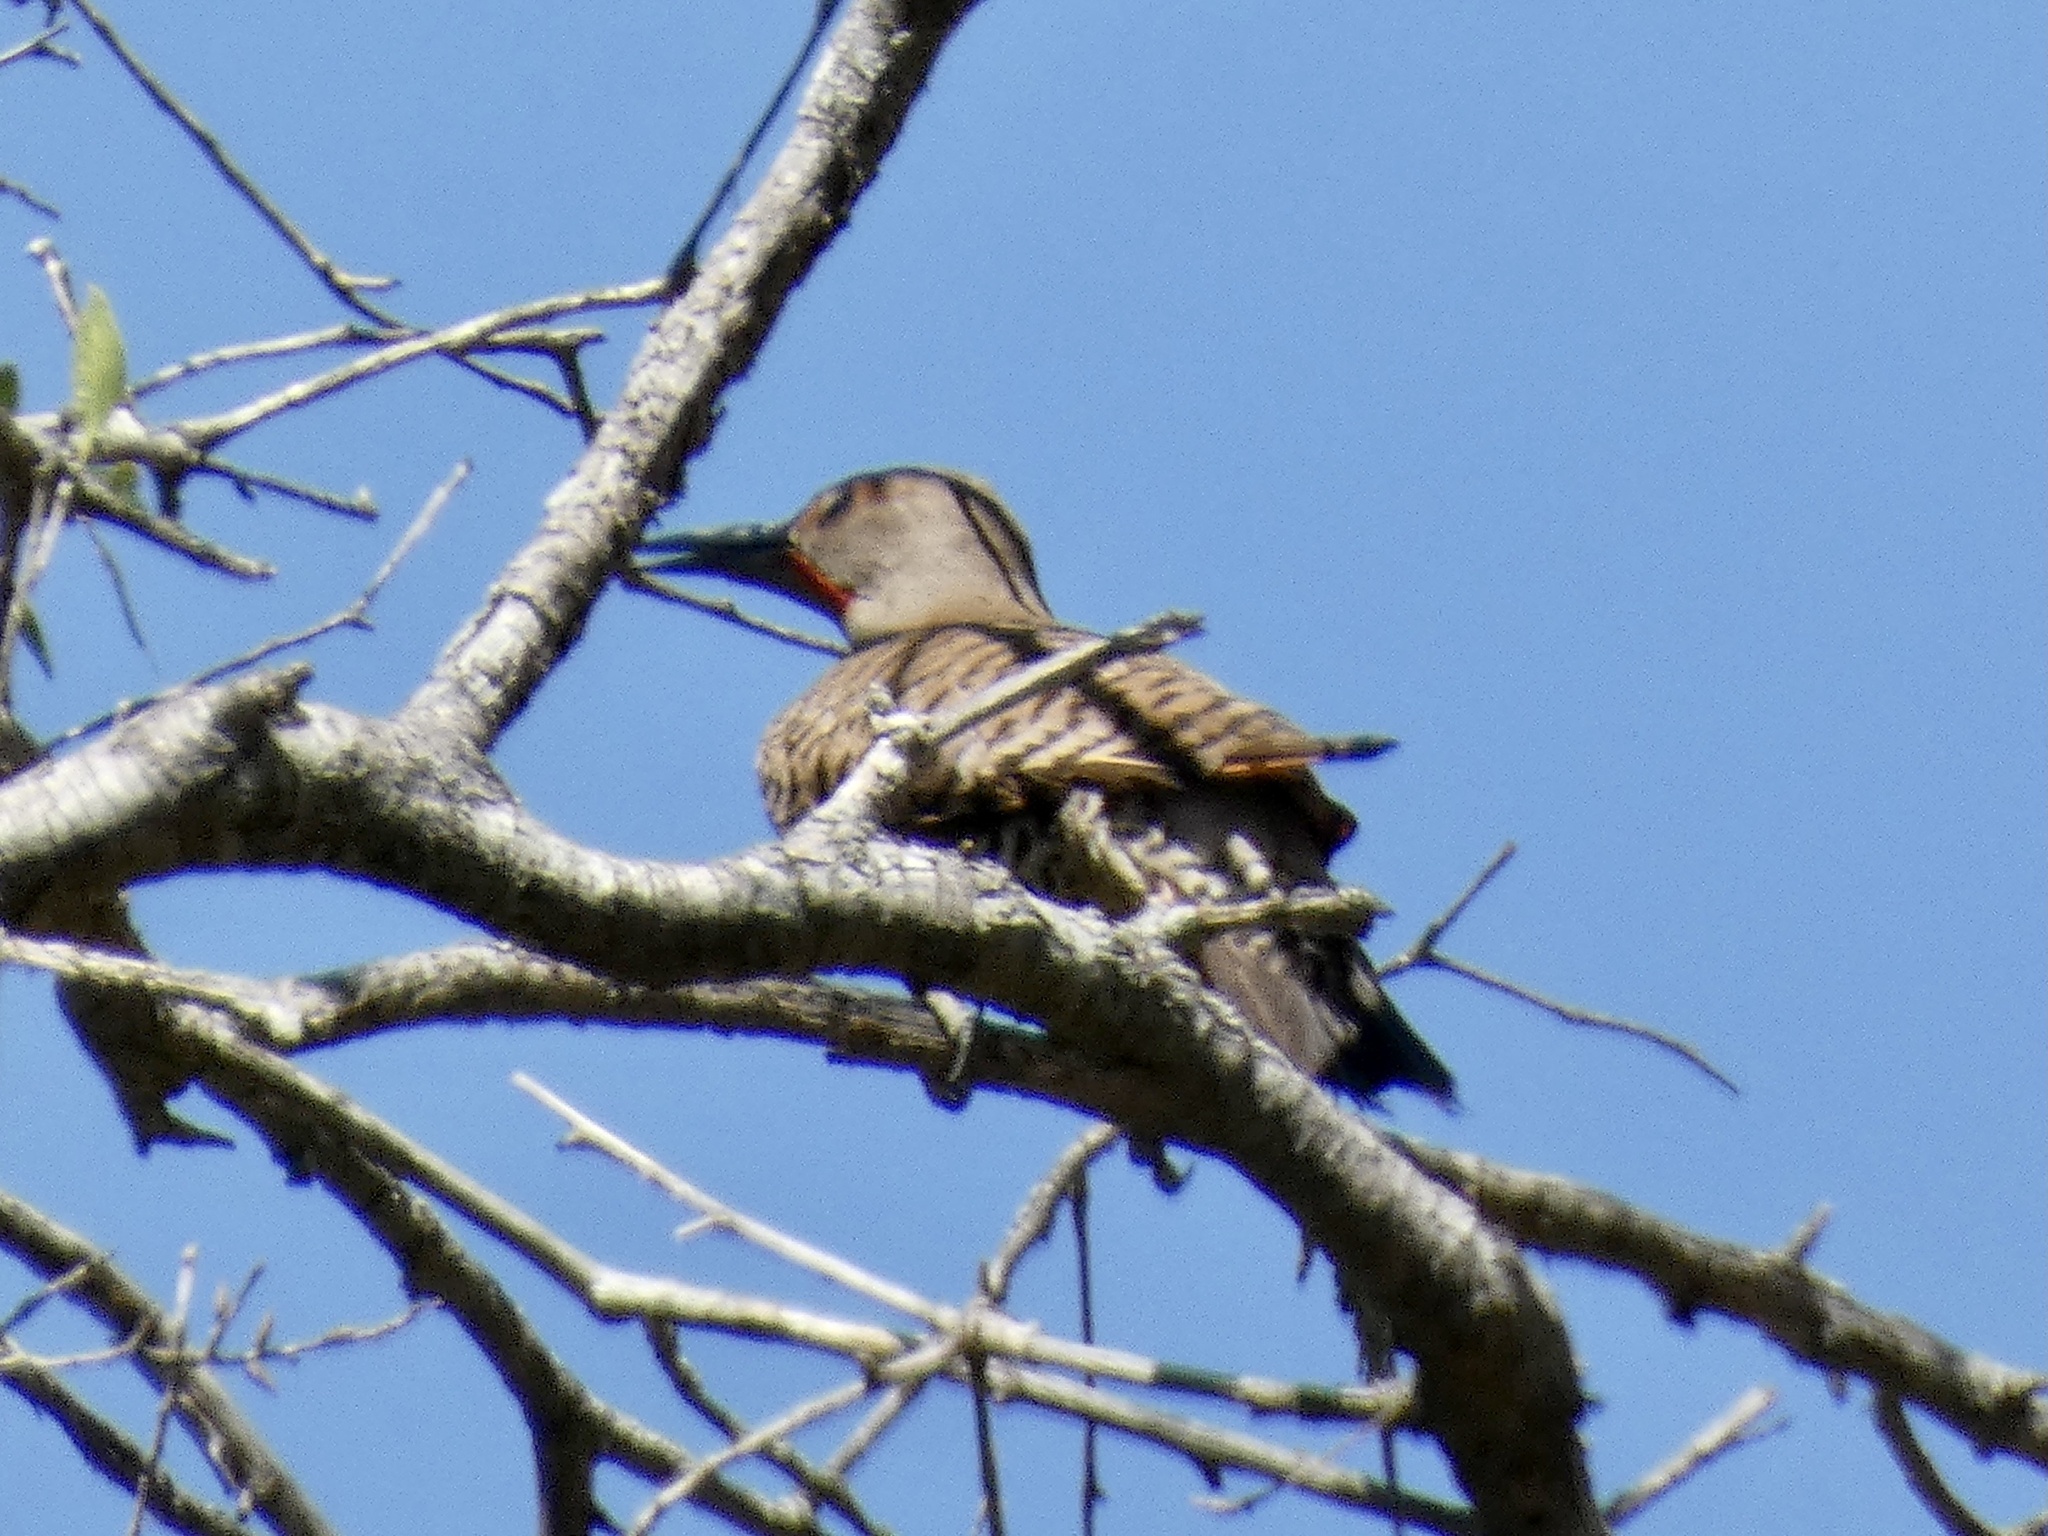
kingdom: Animalia
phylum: Chordata
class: Aves
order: Piciformes
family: Picidae
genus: Colaptes
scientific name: Colaptes auratus
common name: Northern flicker
